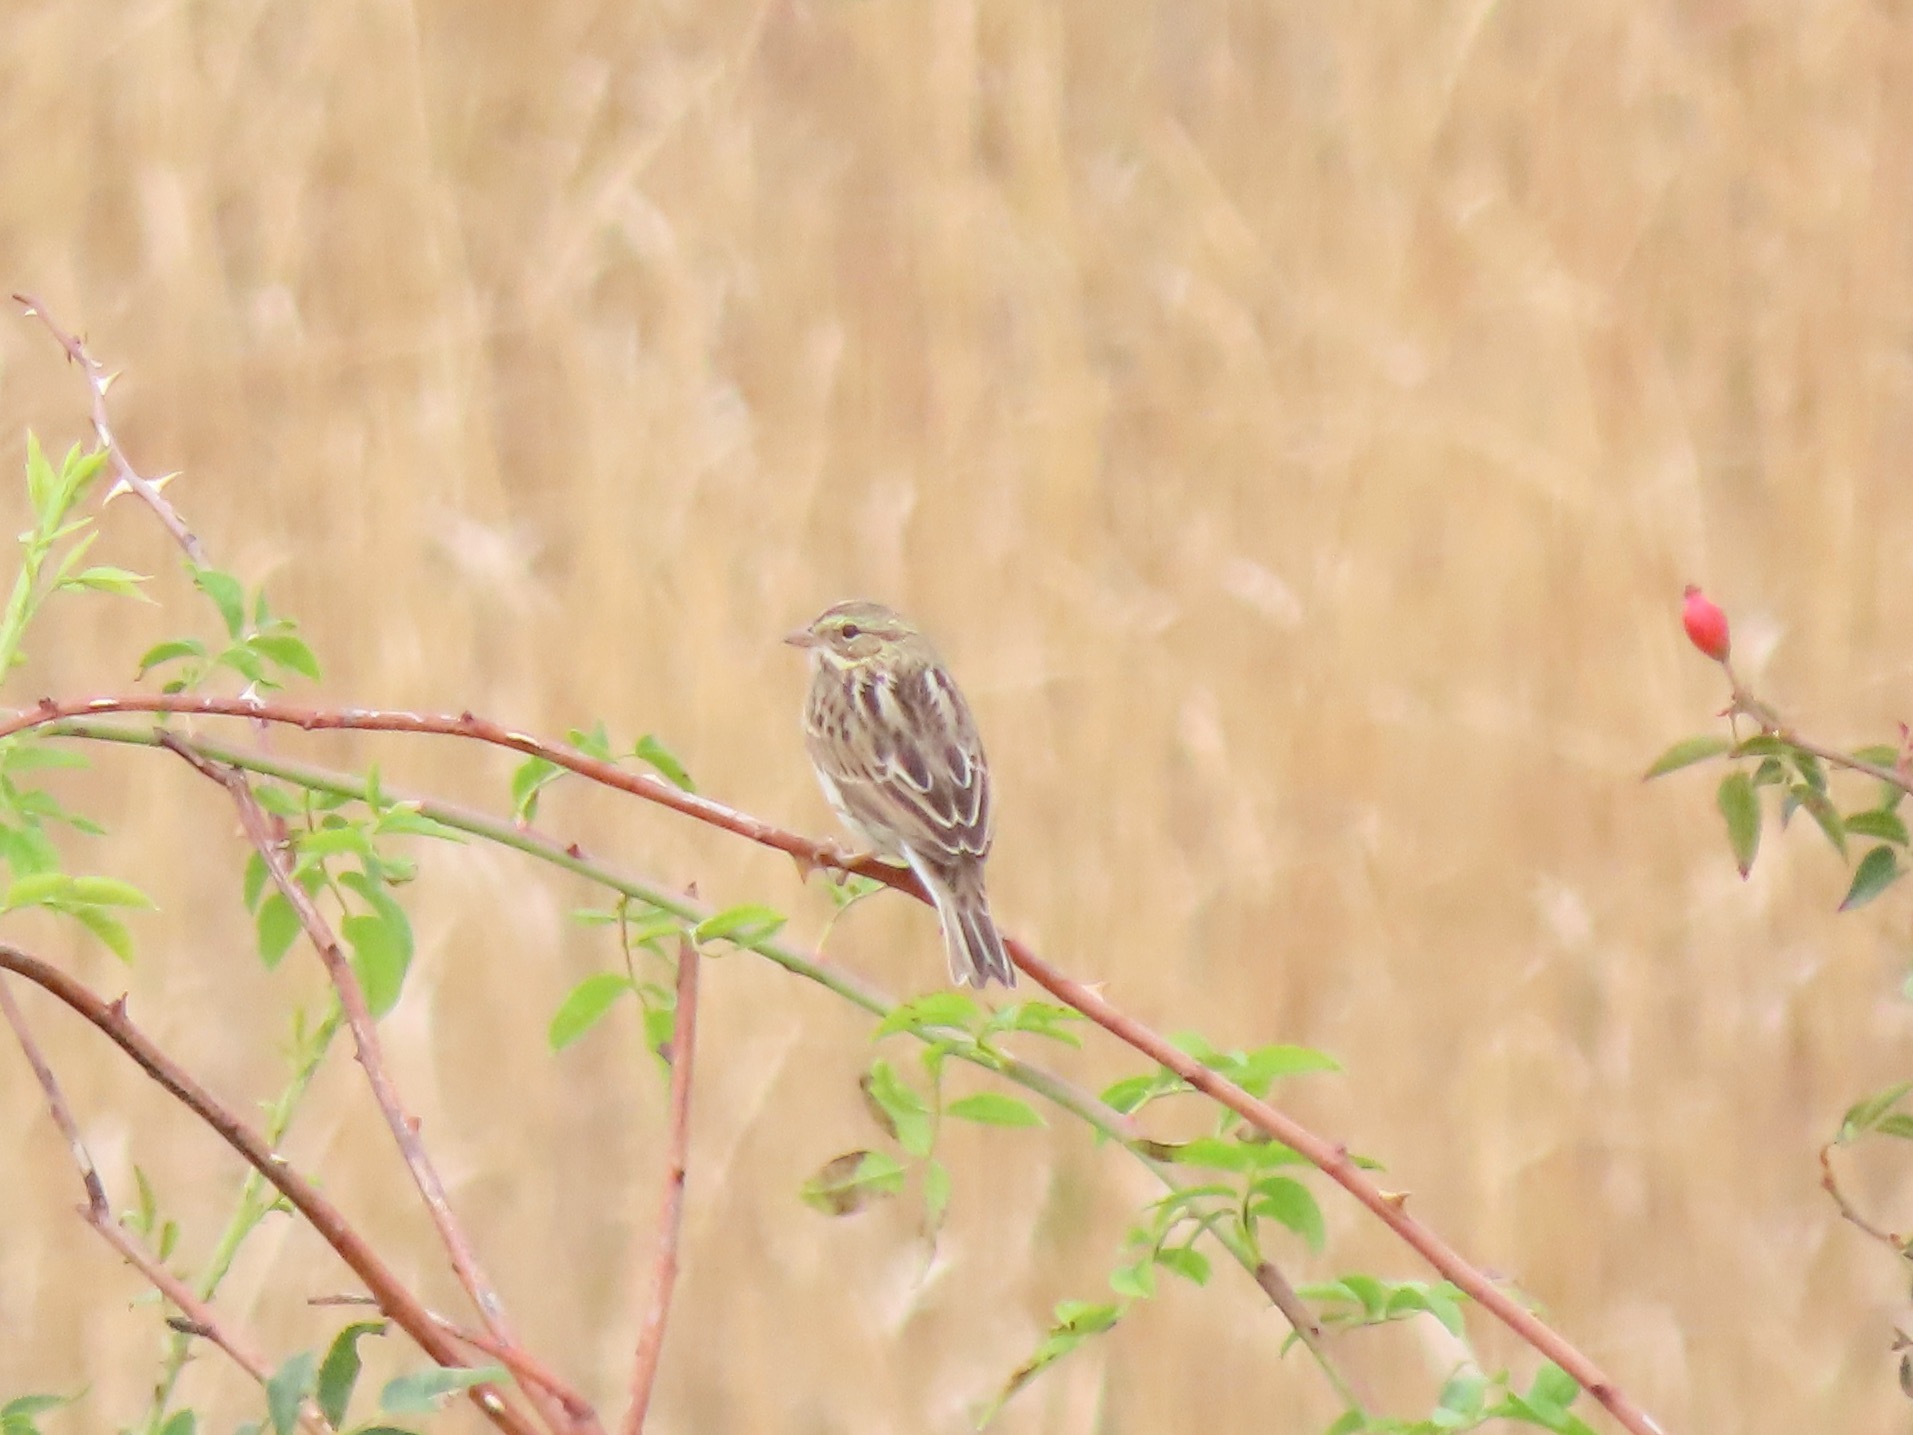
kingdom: Animalia
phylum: Chordata
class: Aves
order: Passeriformes
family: Passerellidae
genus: Passerculus
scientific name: Passerculus sandwichensis
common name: Savannah sparrow
